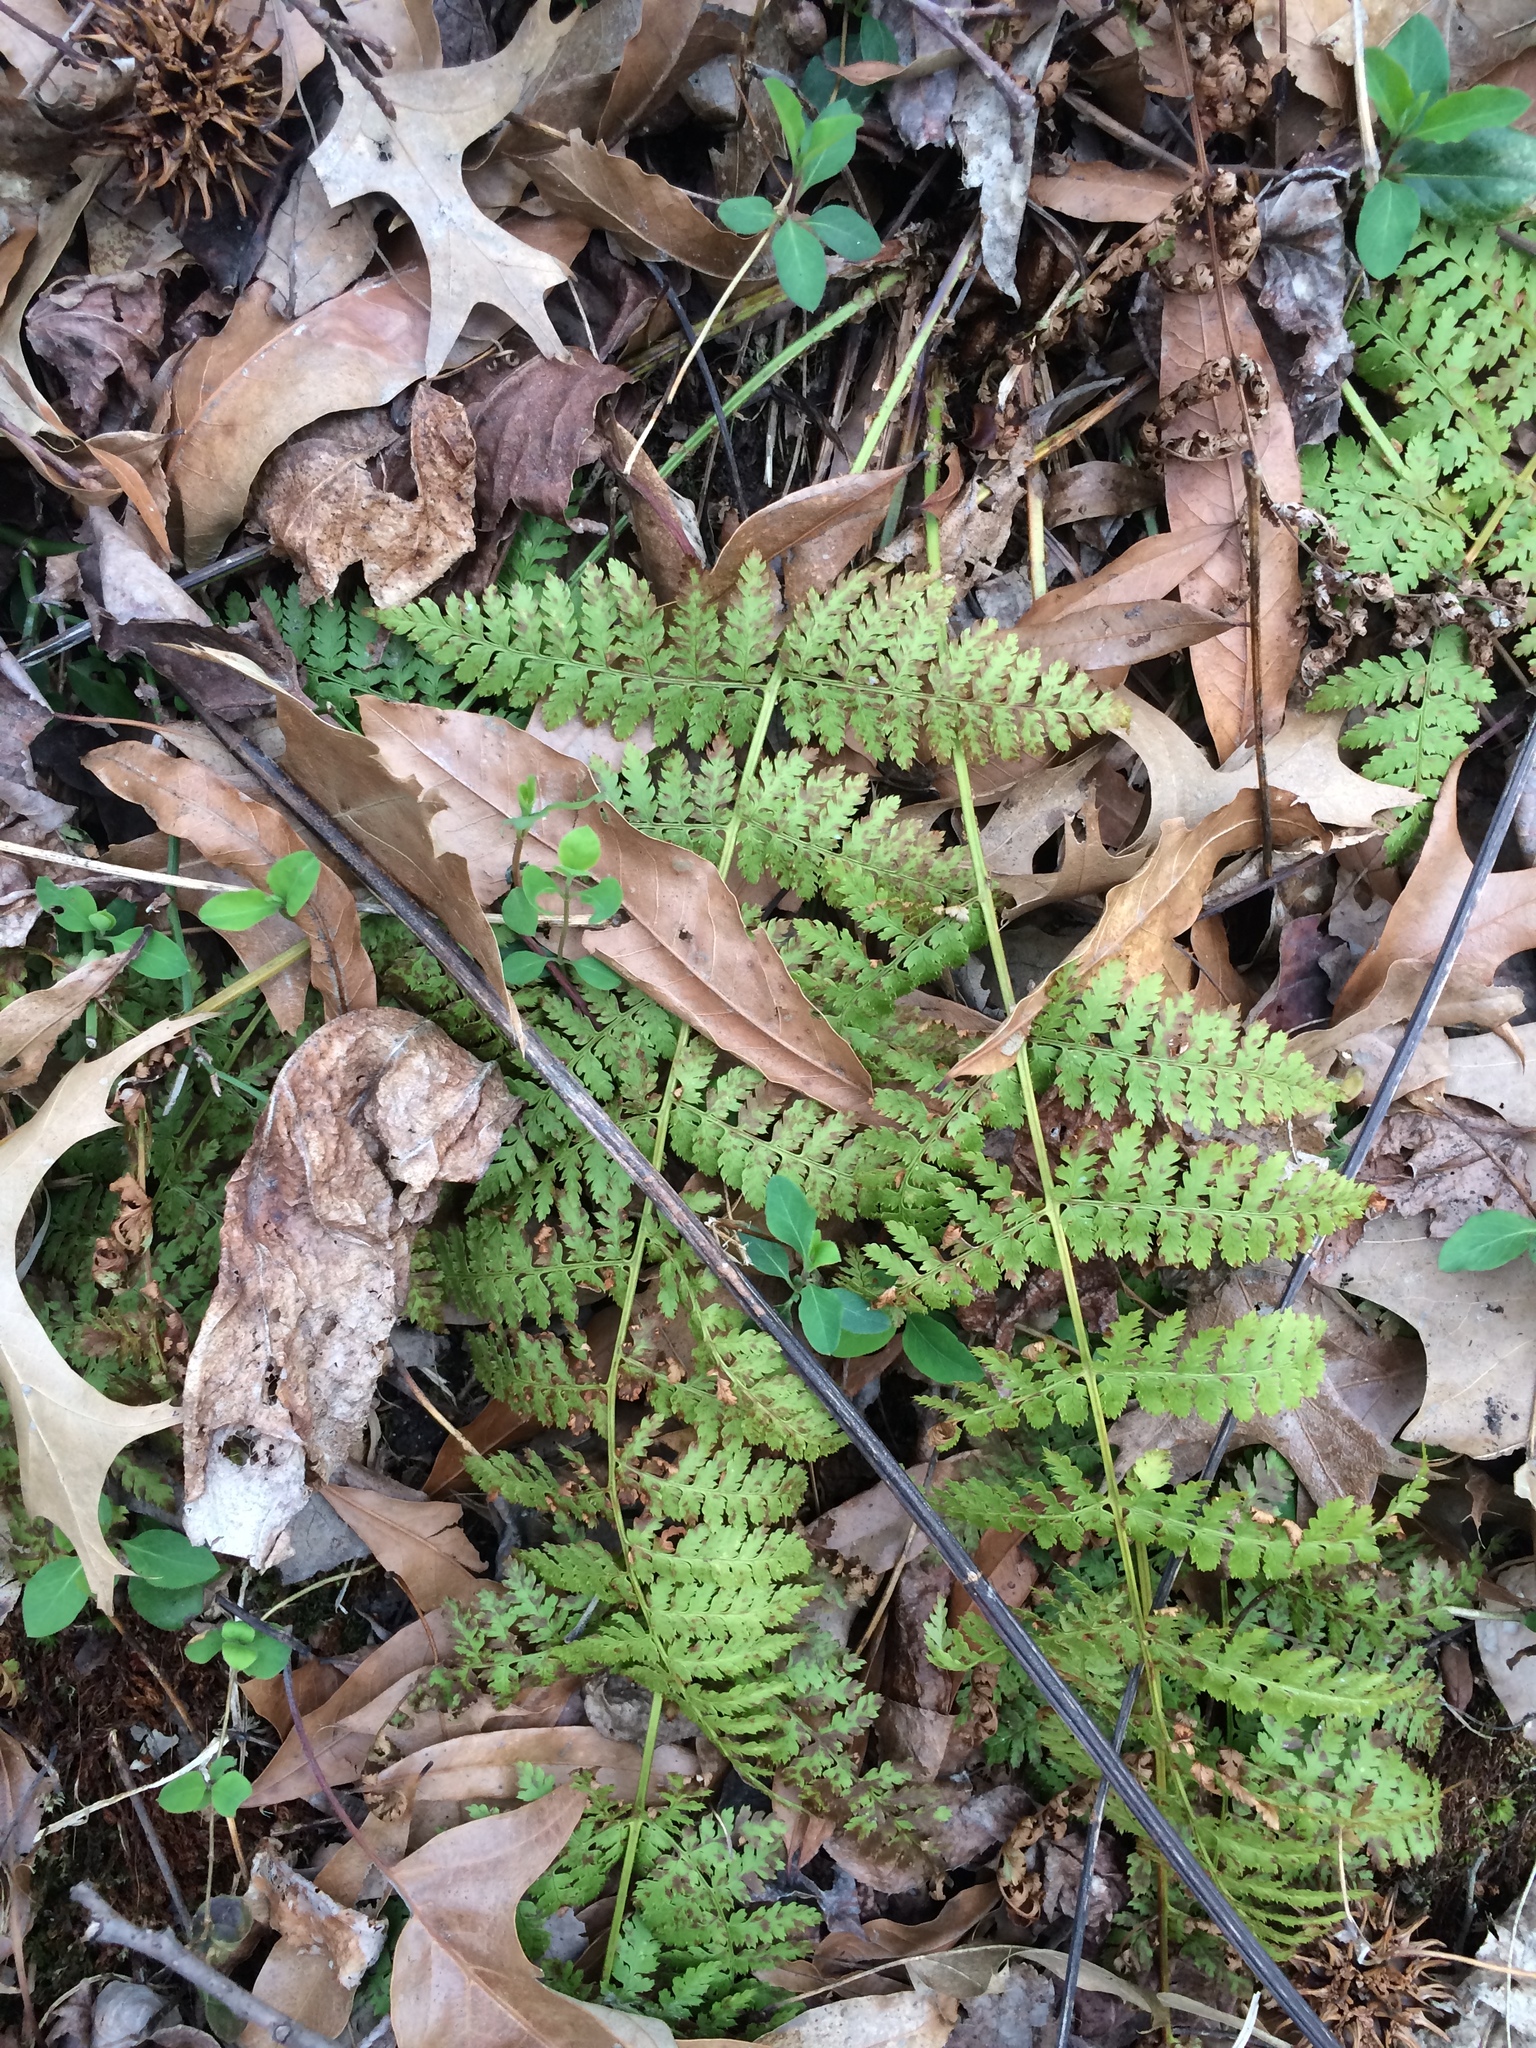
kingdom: Plantae
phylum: Tracheophyta
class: Polypodiopsida
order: Polypodiales
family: Dryopteridaceae
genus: Dryopteris
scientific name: Dryopteris intermedia
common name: Evergreen wood fern
